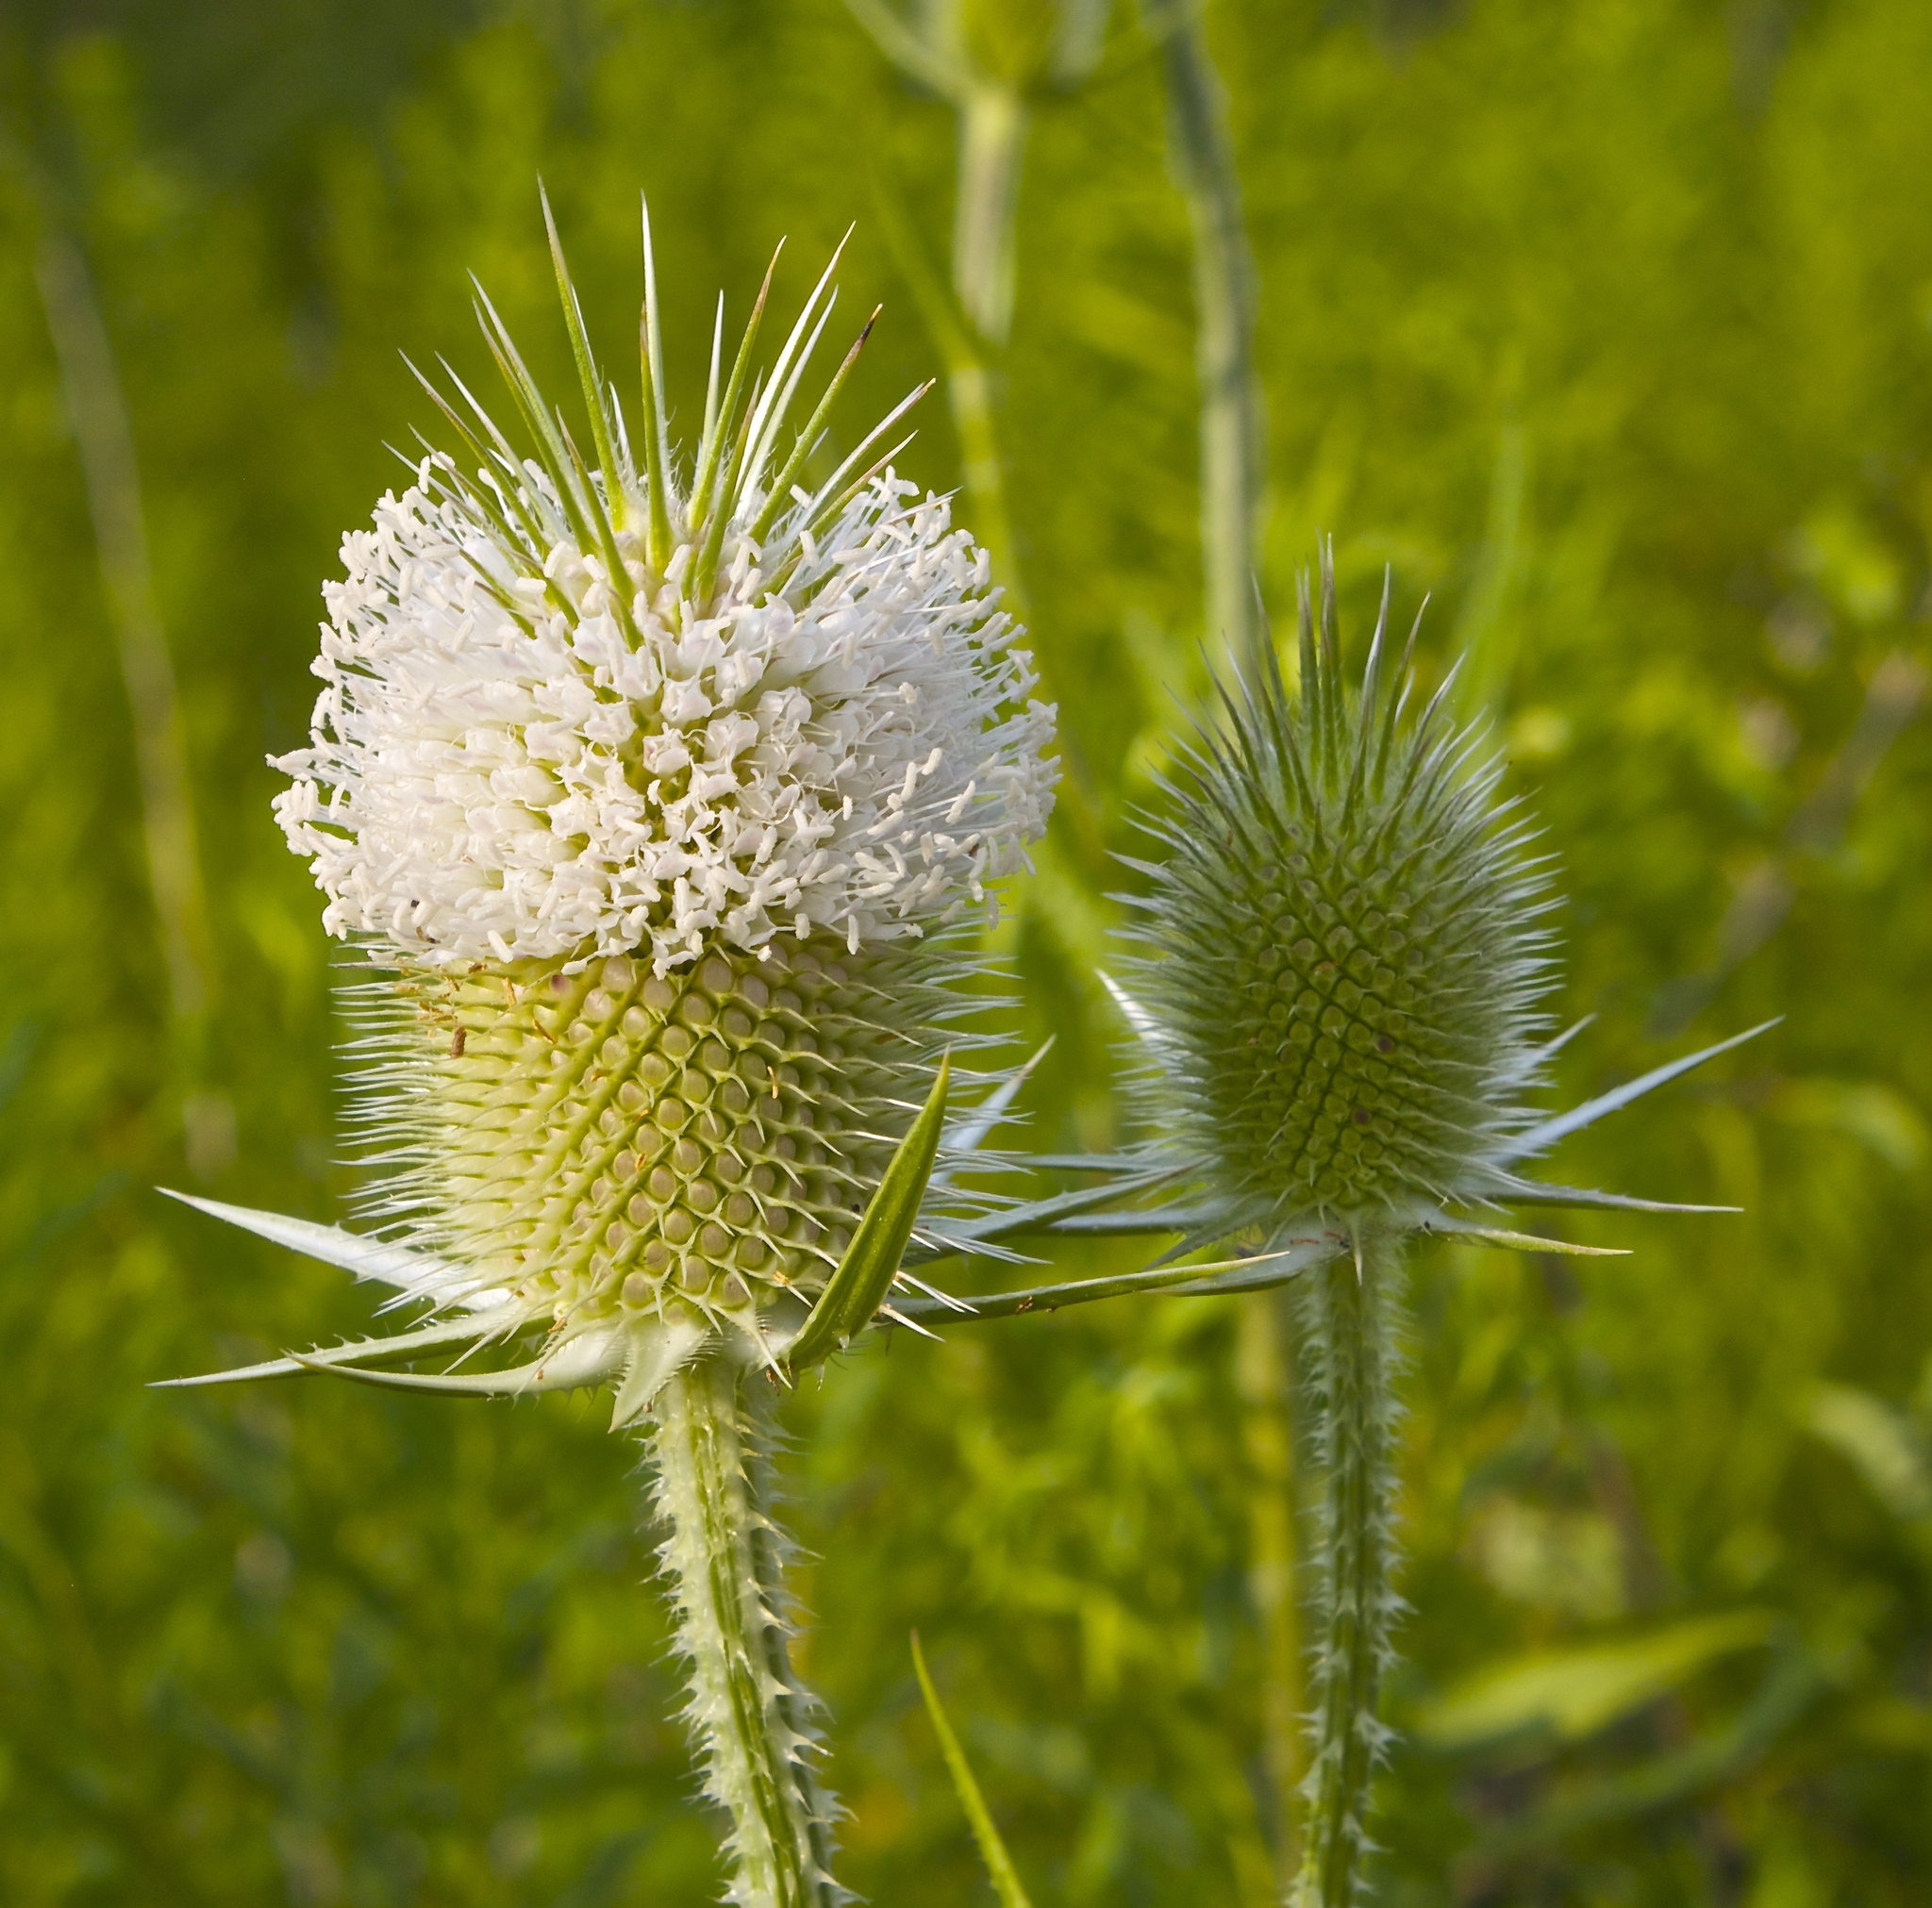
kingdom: Plantae
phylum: Tracheophyta
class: Magnoliopsida
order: Dipsacales
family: Caprifoliaceae
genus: Dipsacus
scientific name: Dipsacus laciniatus
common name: Cut-leaved teasel
